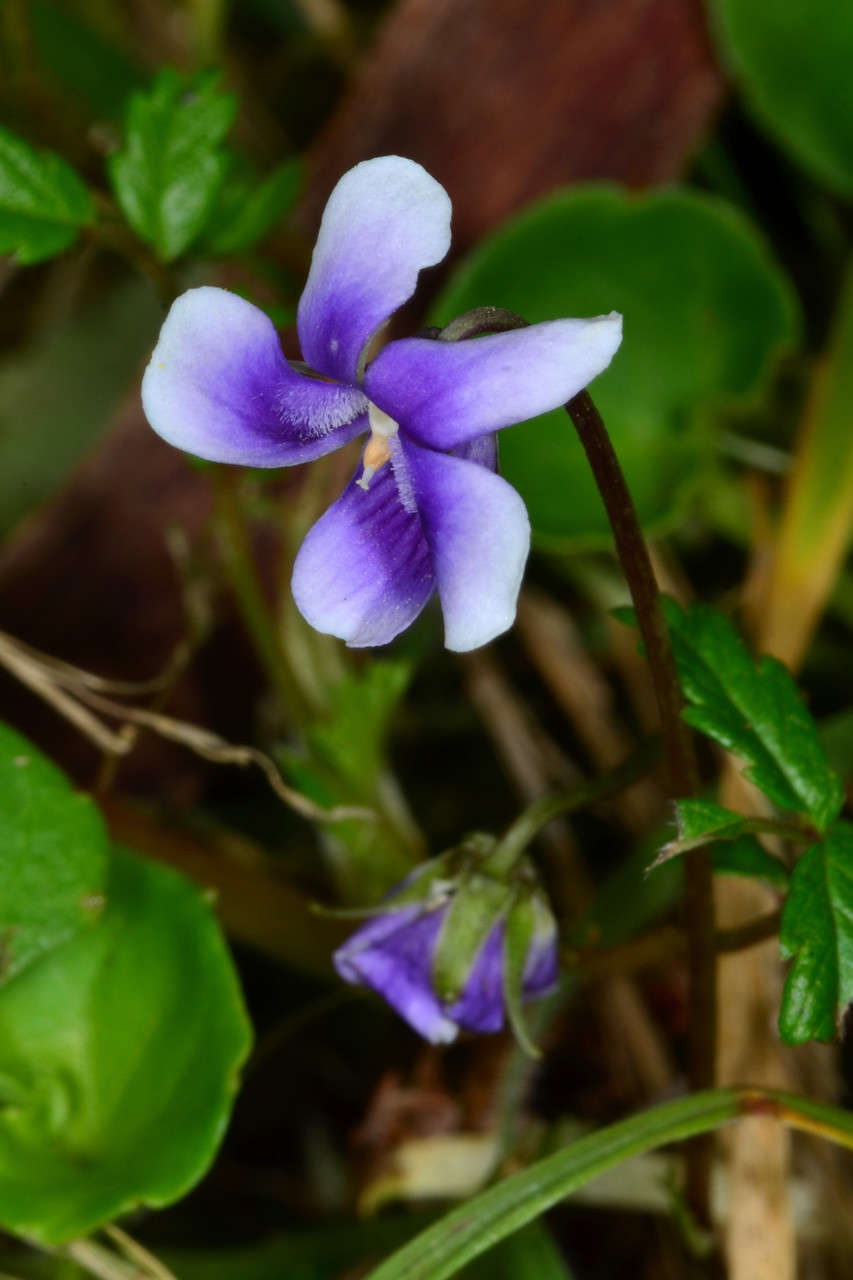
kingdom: Plantae
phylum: Tracheophyta
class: Magnoliopsida
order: Malpighiales
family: Violaceae
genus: Viola
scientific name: Viola hederacea
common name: Australian violet
